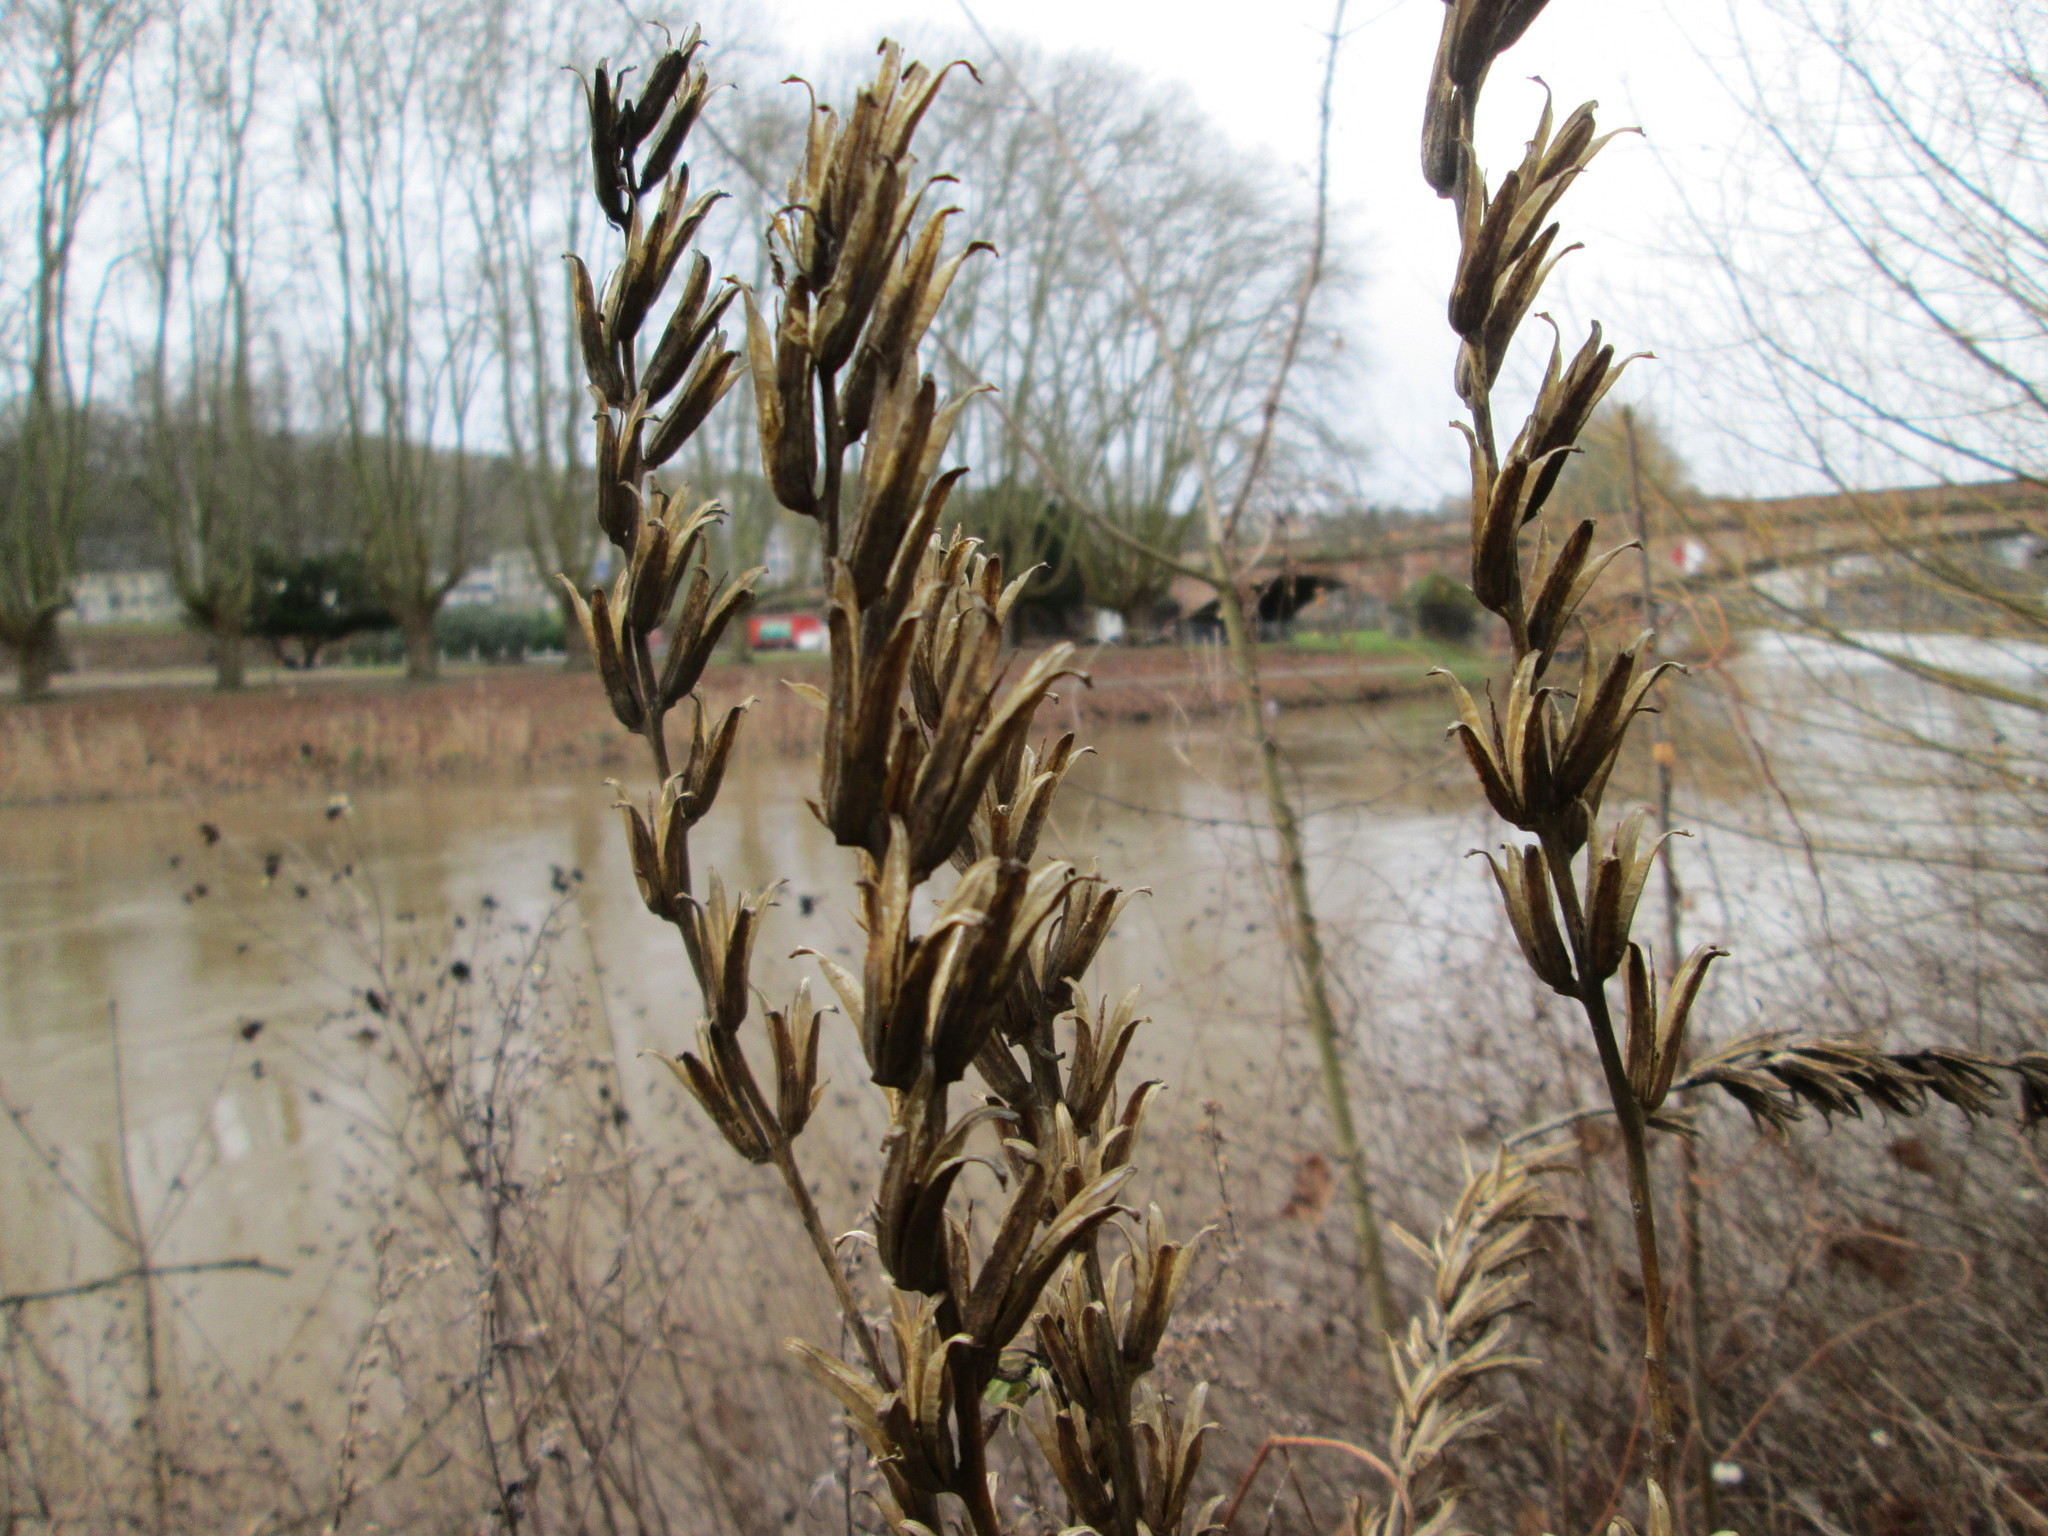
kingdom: Plantae
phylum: Tracheophyta
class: Magnoliopsida
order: Myrtales
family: Onagraceae
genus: Oenothera
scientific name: Oenothera biennis
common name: Common evening-primrose
